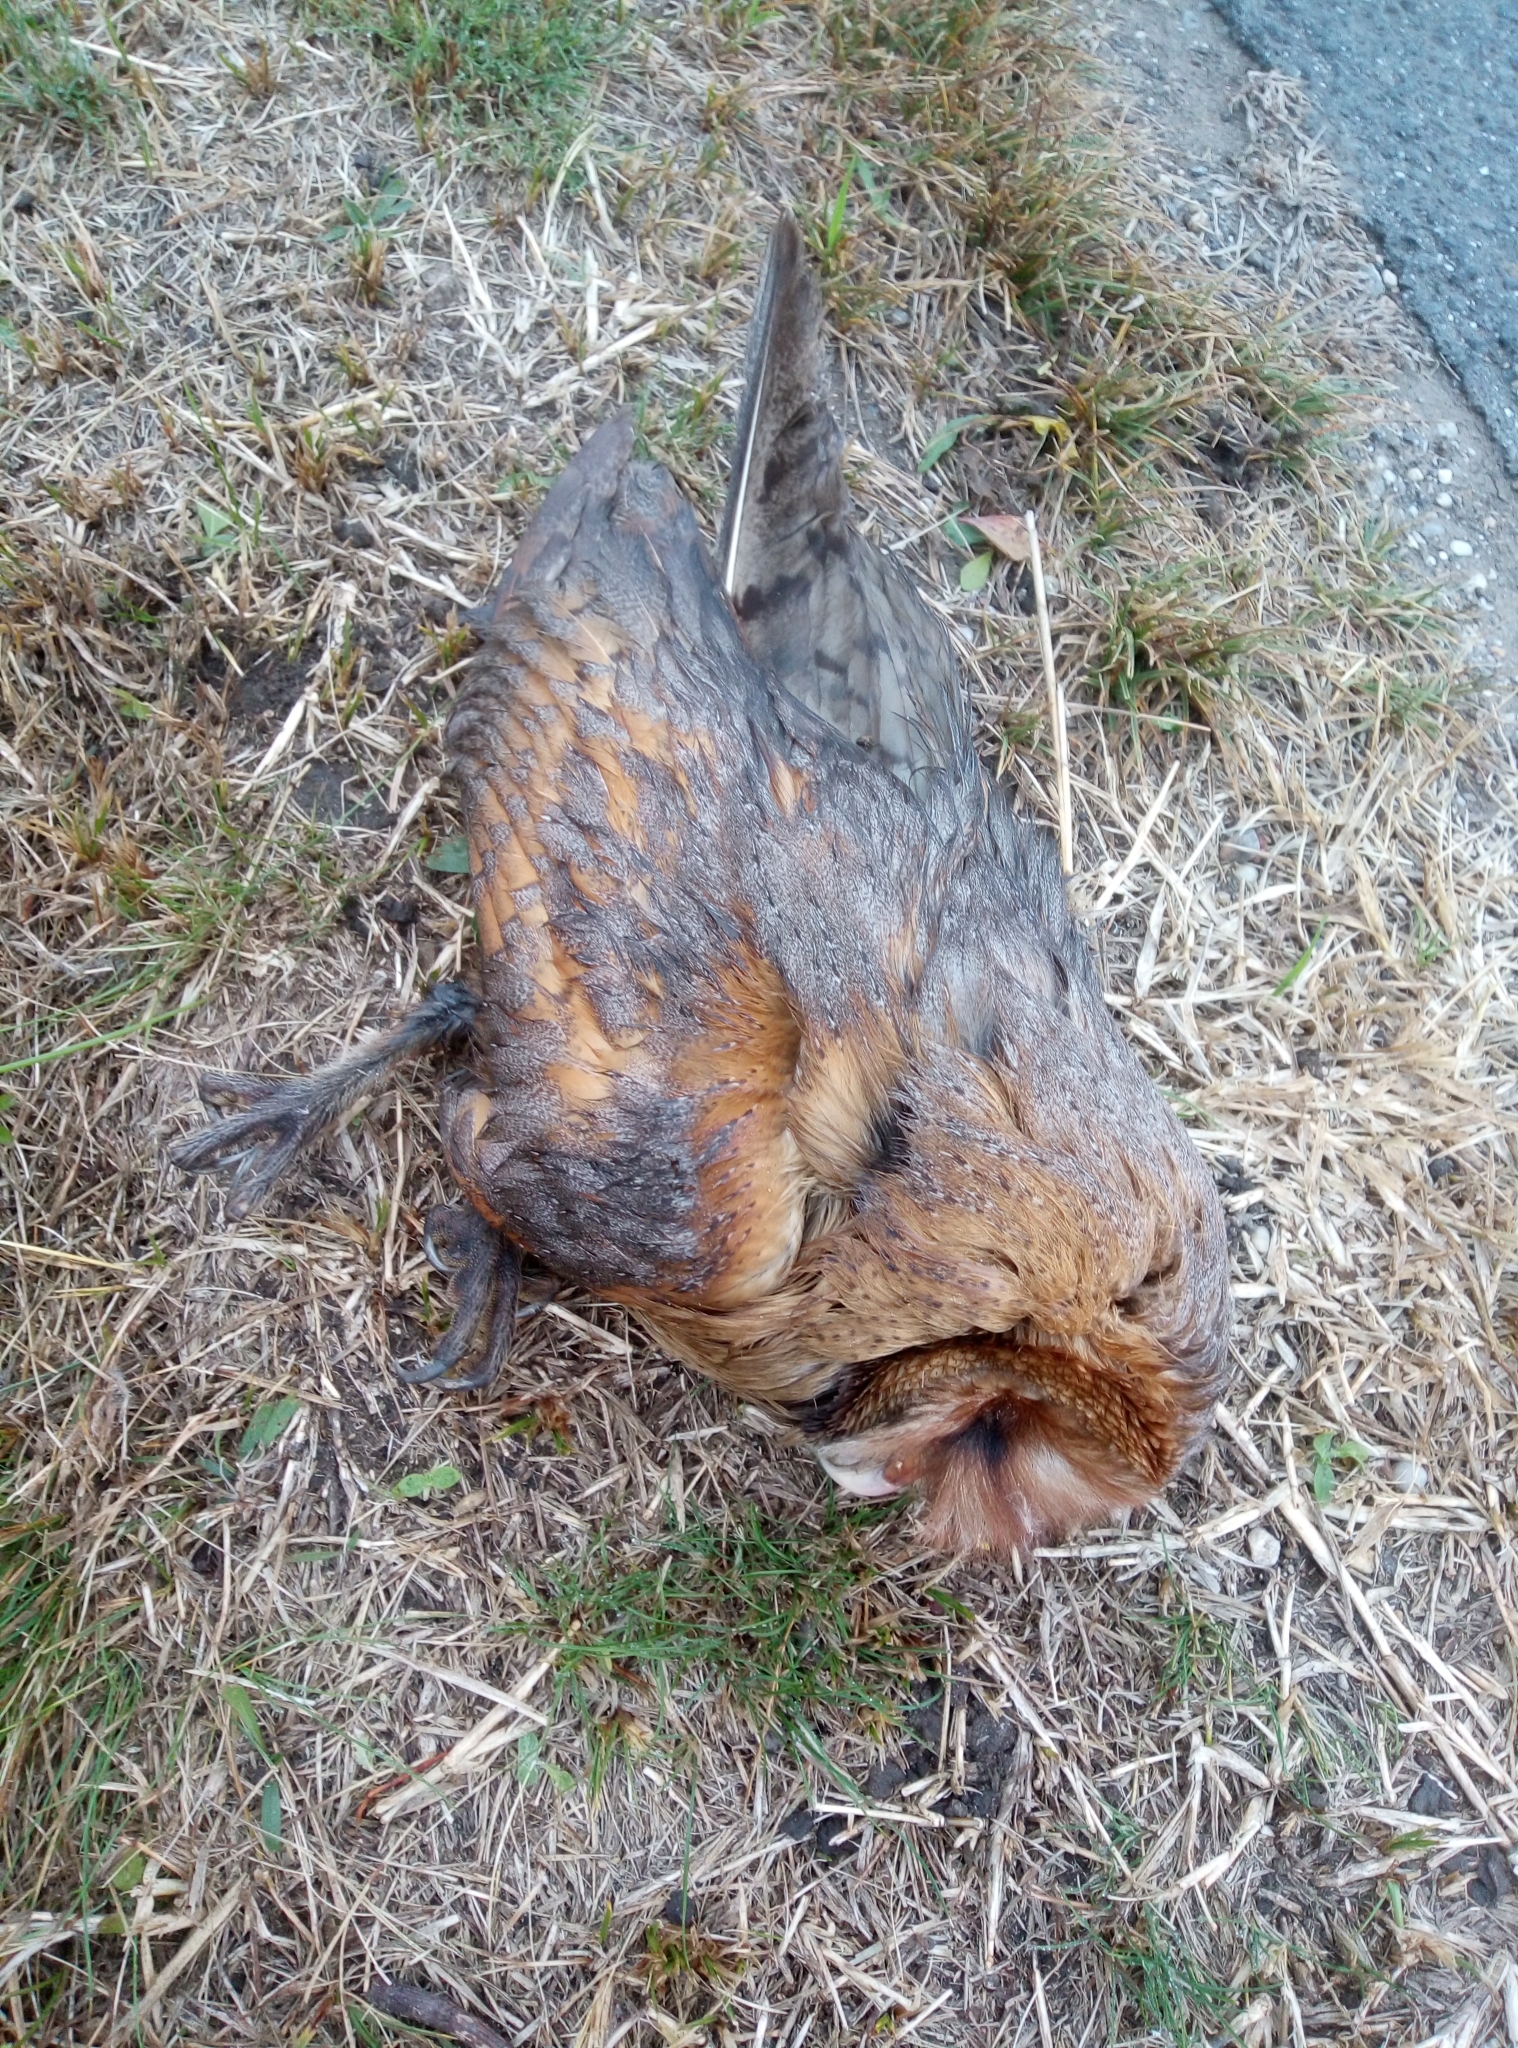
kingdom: Animalia
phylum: Chordata
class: Aves
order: Strigiformes
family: Tytonidae
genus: Tyto
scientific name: Tyto alba
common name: Barn owl
